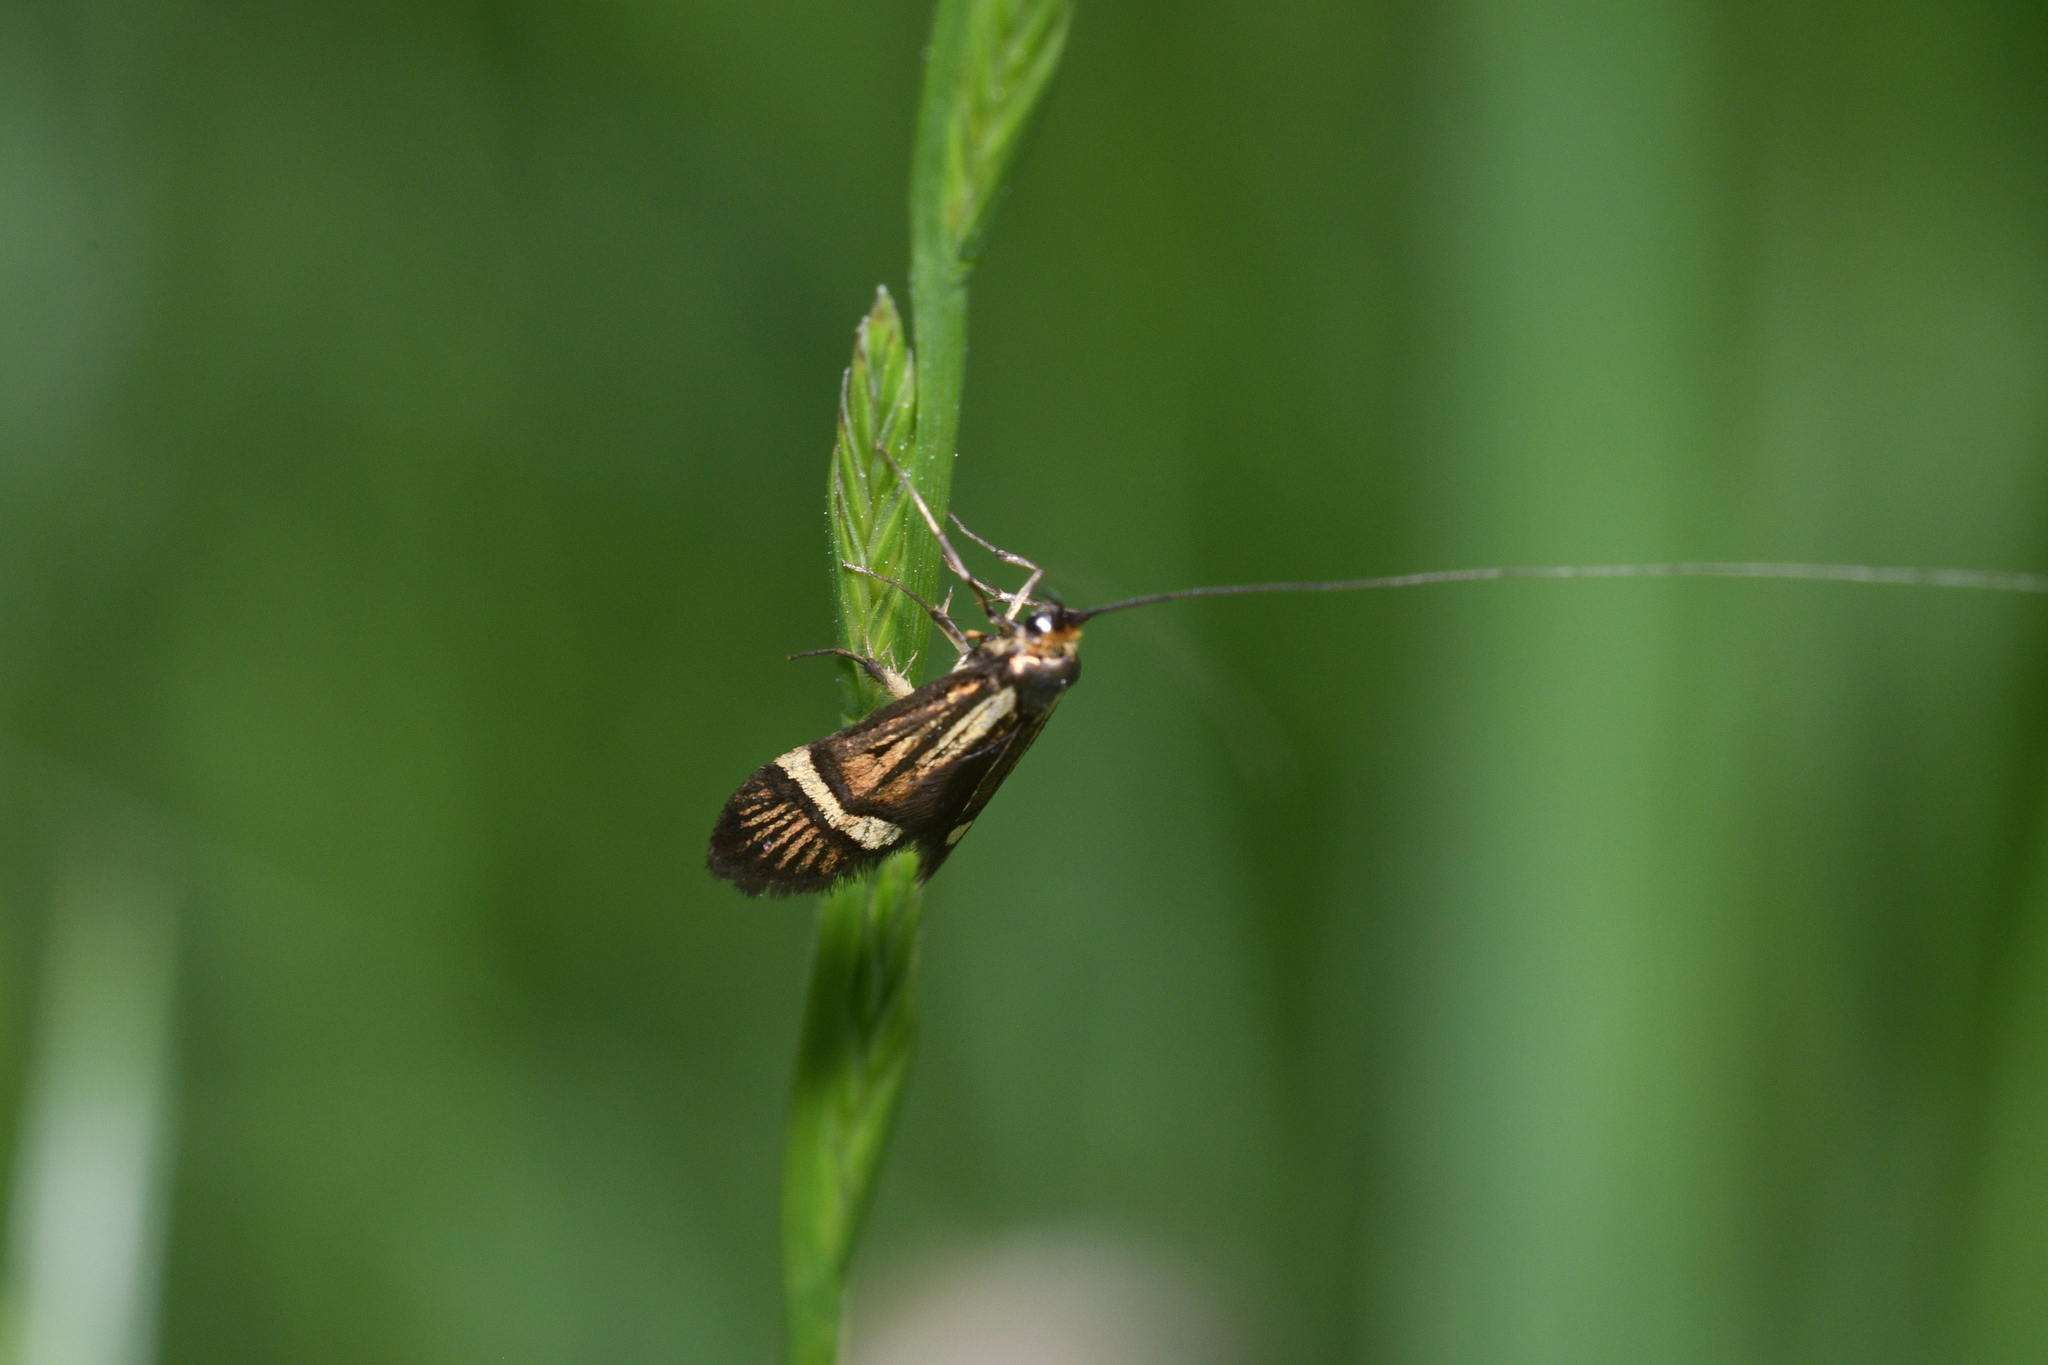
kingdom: Animalia
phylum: Arthropoda
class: Insecta
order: Lepidoptera
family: Adelidae
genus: Nemophora
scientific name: Nemophora degeerella
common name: Yellow-barred long-horn
